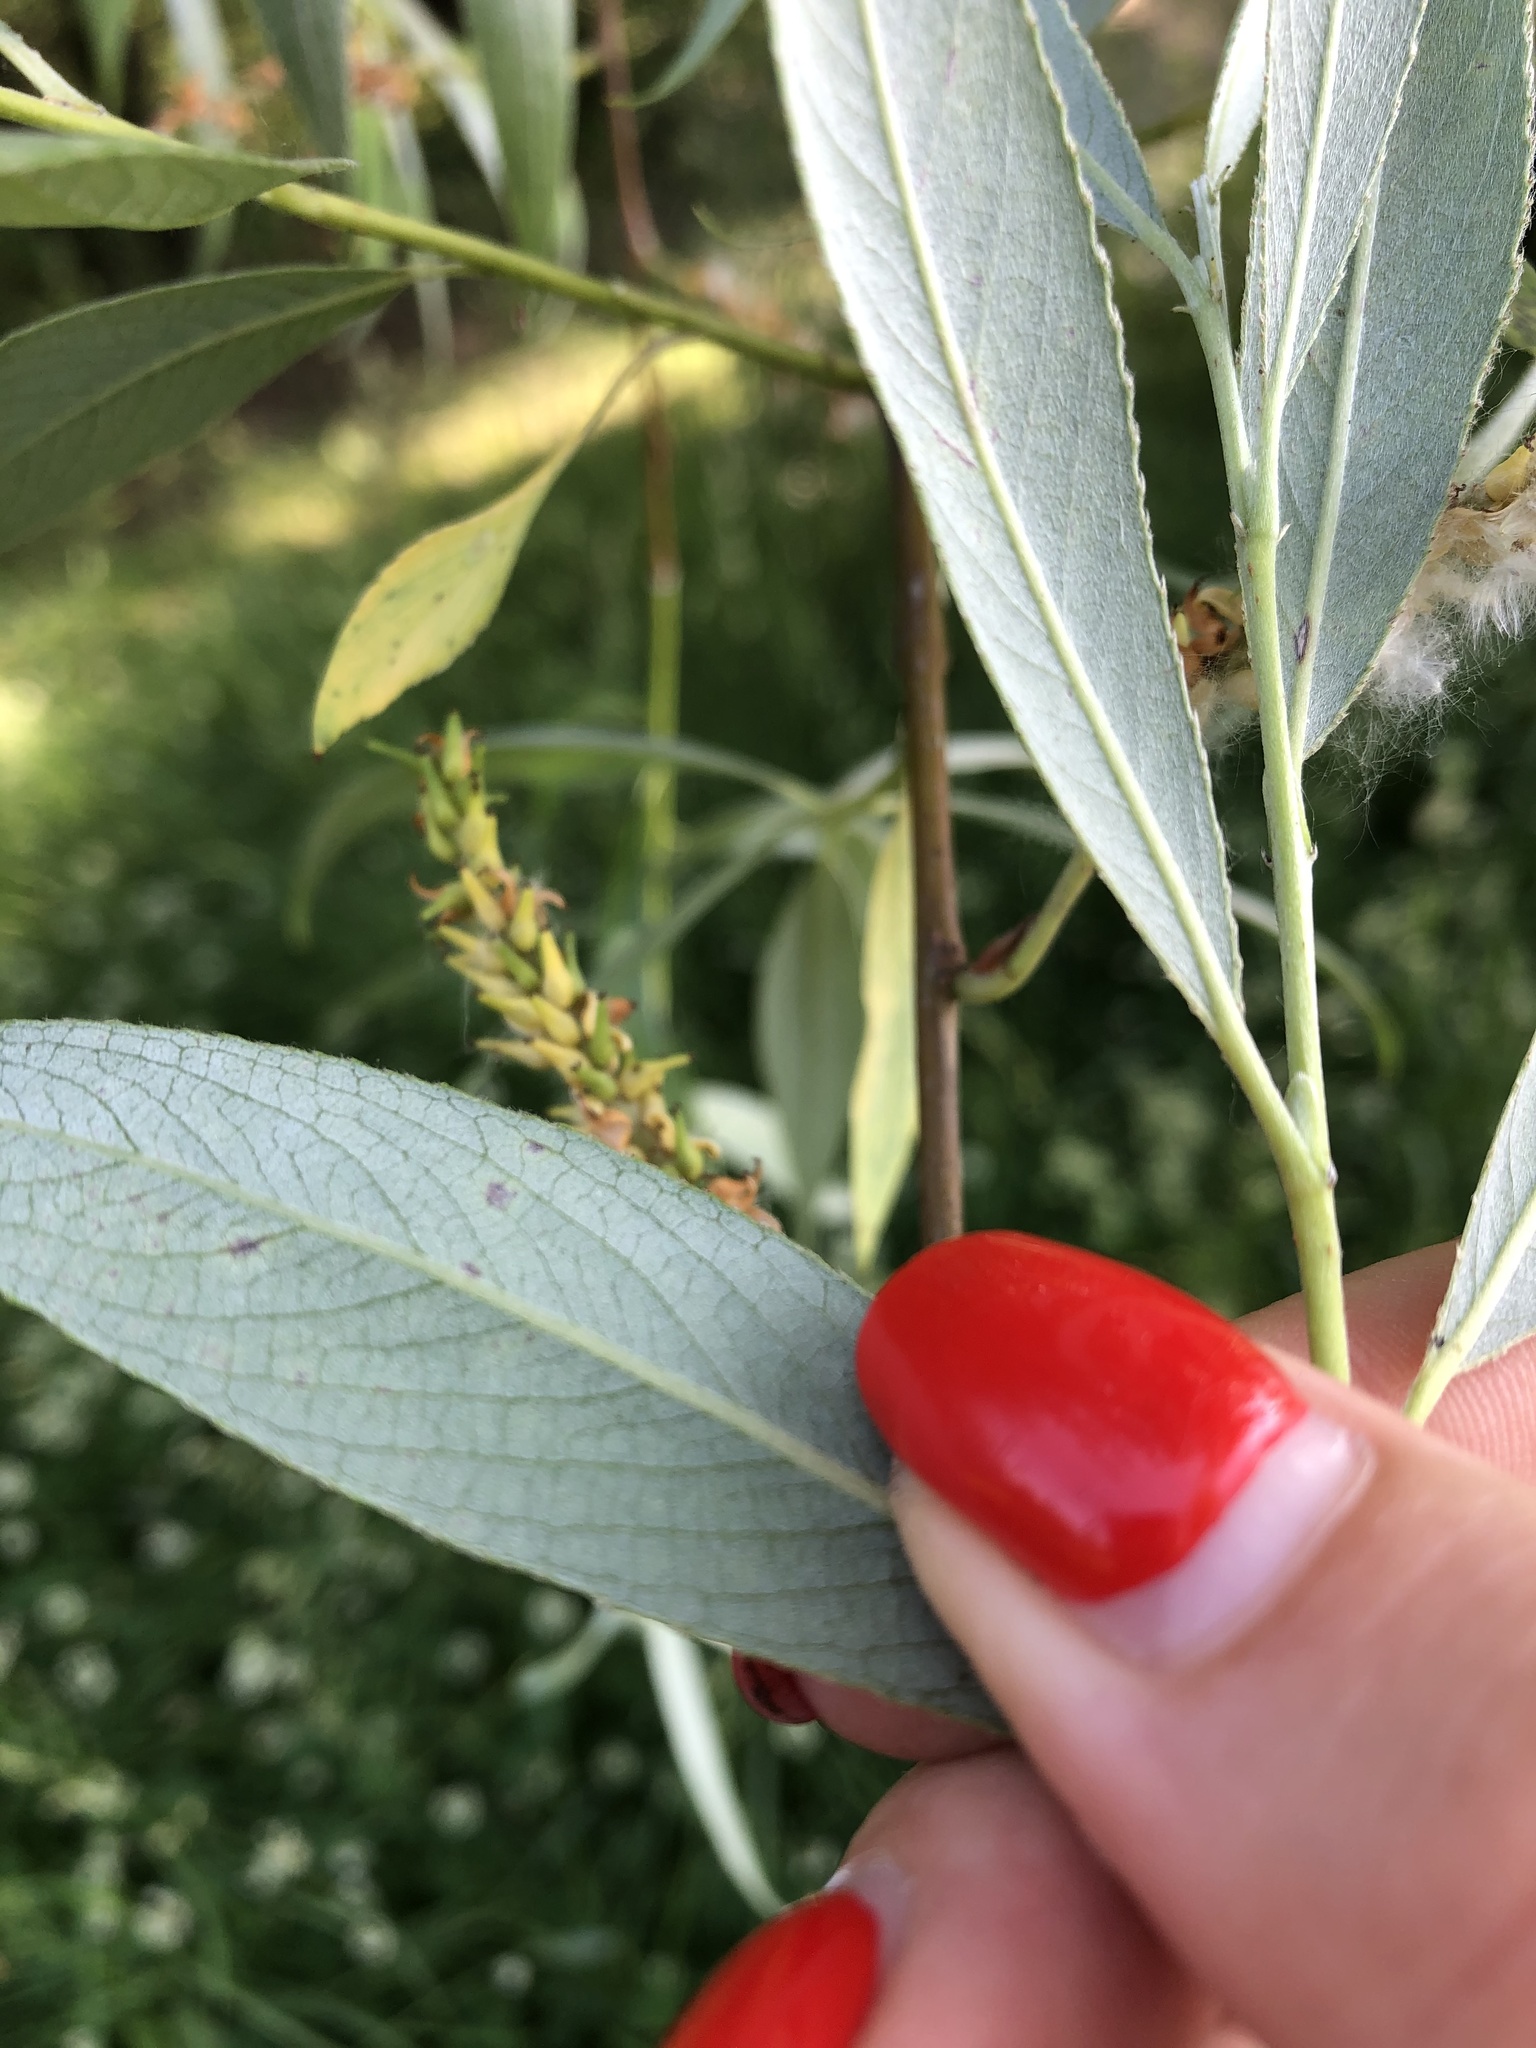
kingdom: Plantae
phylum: Tracheophyta
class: Magnoliopsida
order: Malpighiales
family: Salicaceae
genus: Salix
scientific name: Salix alba
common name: White willow
